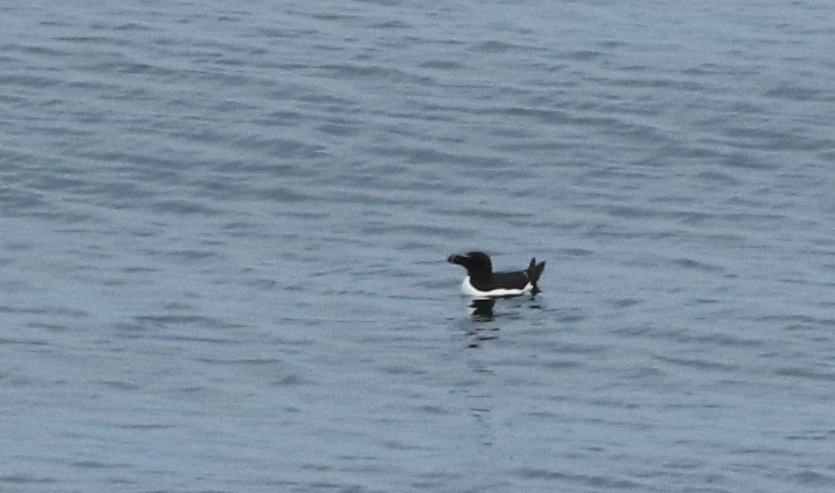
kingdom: Animalia
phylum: Chordata
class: Aves
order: Charadriiformes
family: Alcidae
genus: Alca
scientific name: Alca torda
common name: Razorbill
